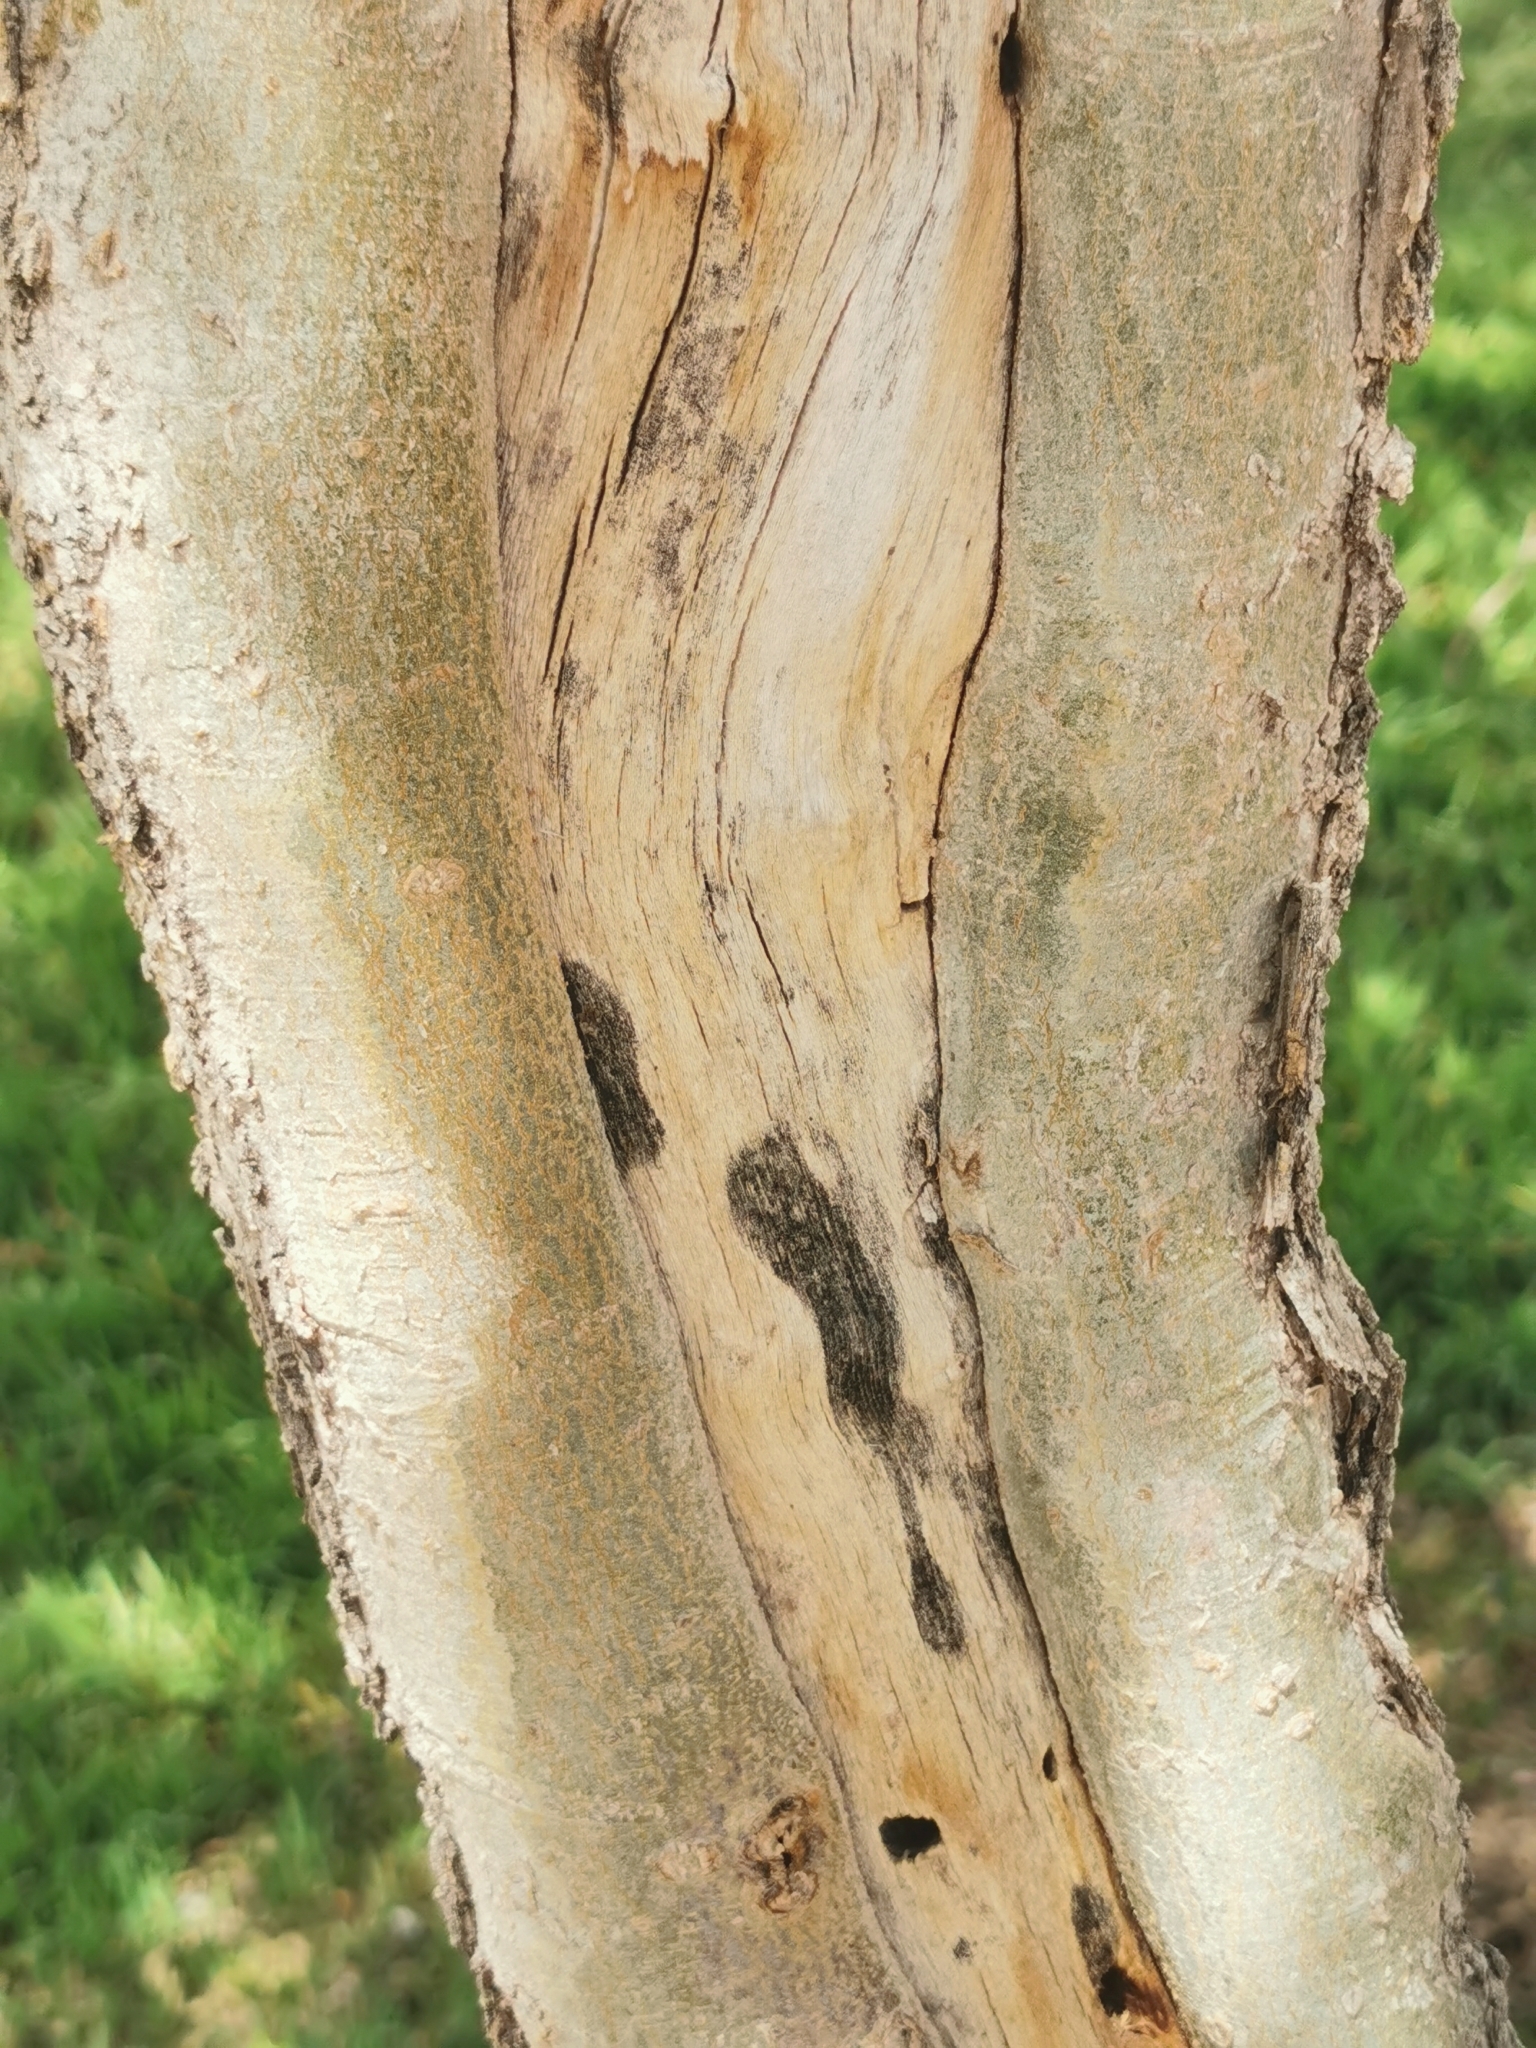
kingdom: Plantae
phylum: Tracheophyta
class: Magnoliopsida
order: Rosales
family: Cannabaceae
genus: Celtis
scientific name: Celtis reticulata
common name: Netleaf hackberry
